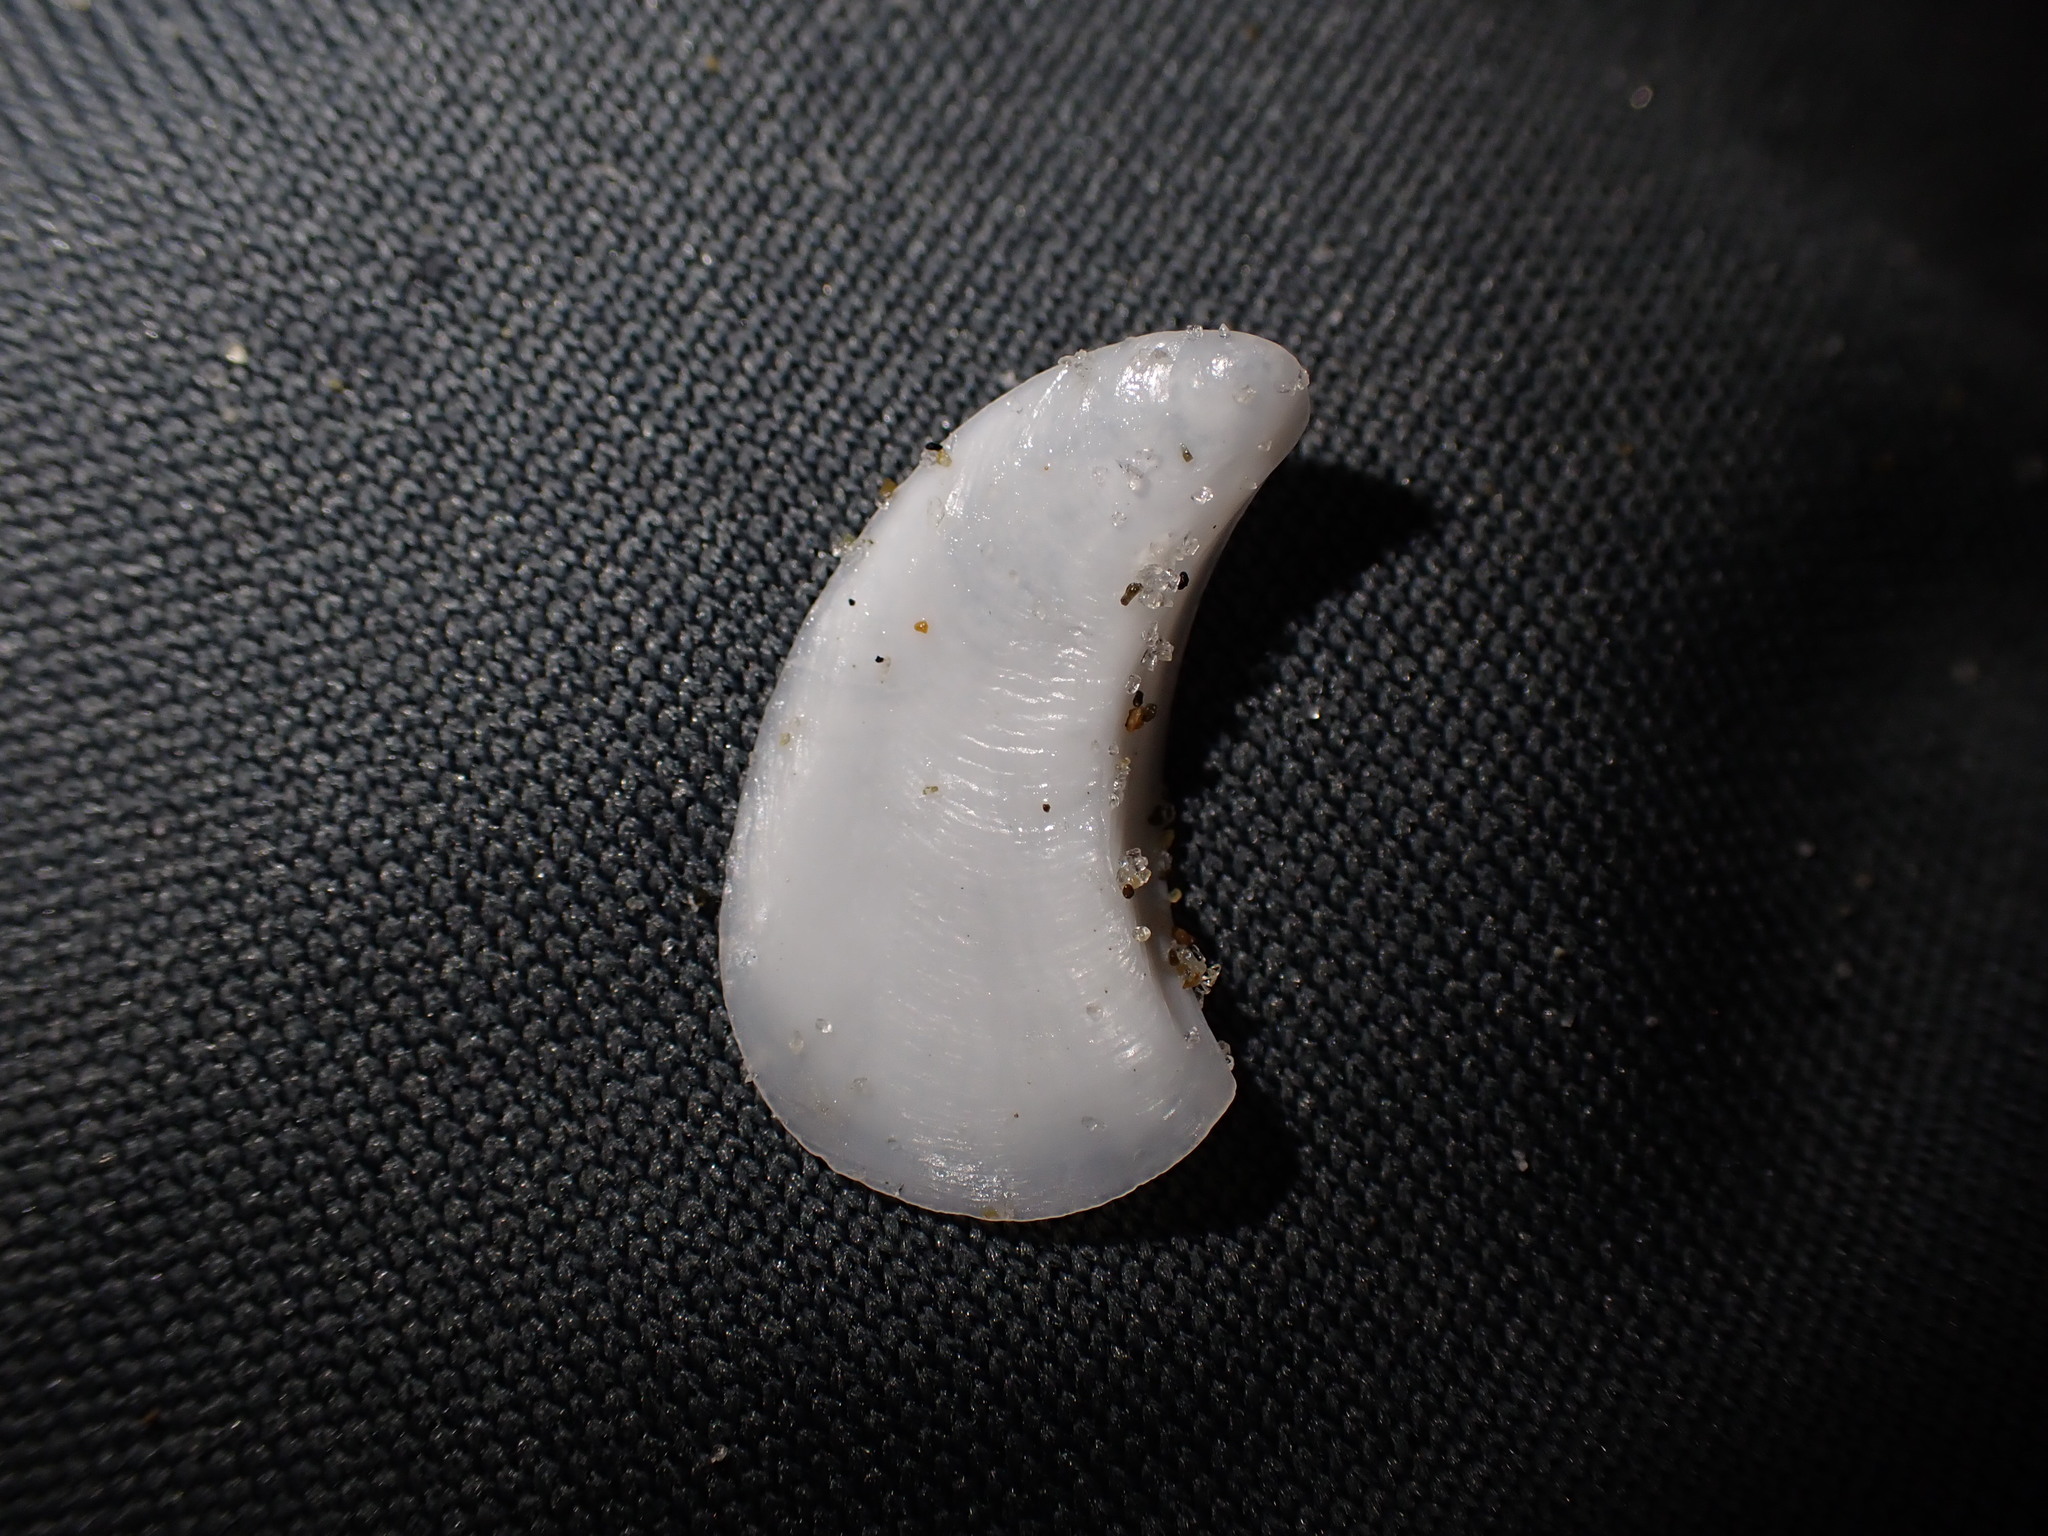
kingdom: Animalia
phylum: Mollusca
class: Gastropoda
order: Littorinimorpha
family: Calyptraeidae
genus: Maoricrypta
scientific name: Maoricrypta sodalis
